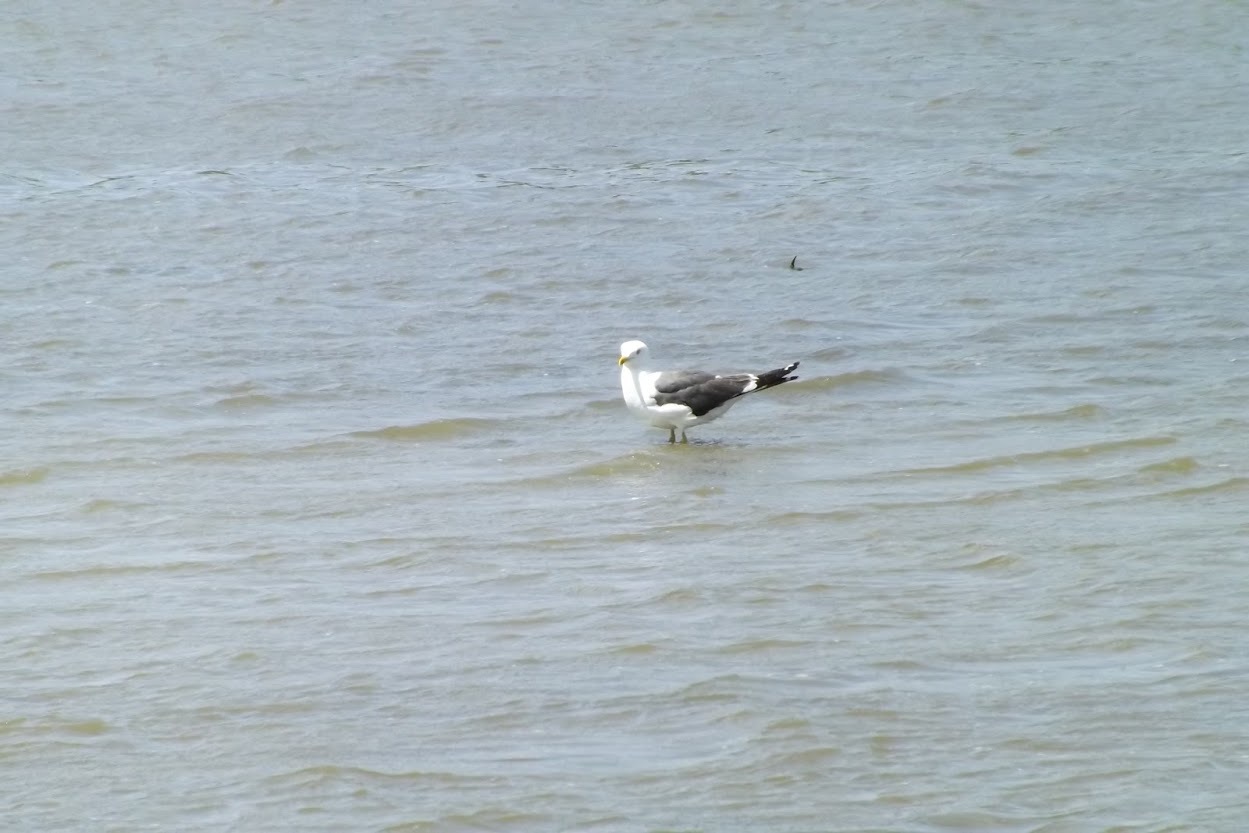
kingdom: Animalia
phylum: Chordata
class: Aves
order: Charadriiformes
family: Laridae
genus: Larus
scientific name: Larus fuscus
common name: Lesser black-backed gull
